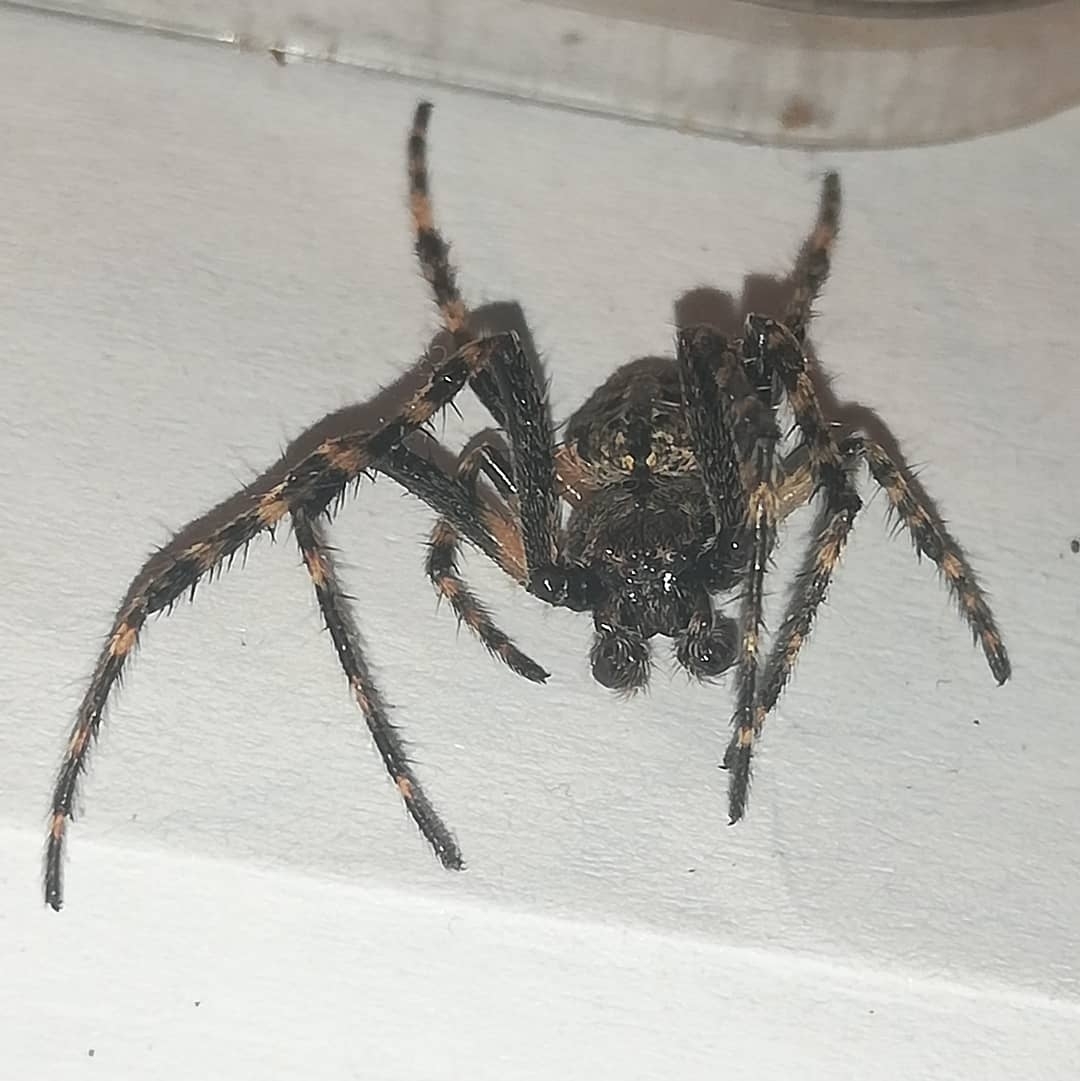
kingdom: Animalia
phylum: Arthropoda
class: Arachnida
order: Araneae
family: Araneidae
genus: Nuctenea
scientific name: Nuctenea umbratica
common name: Toad spider
